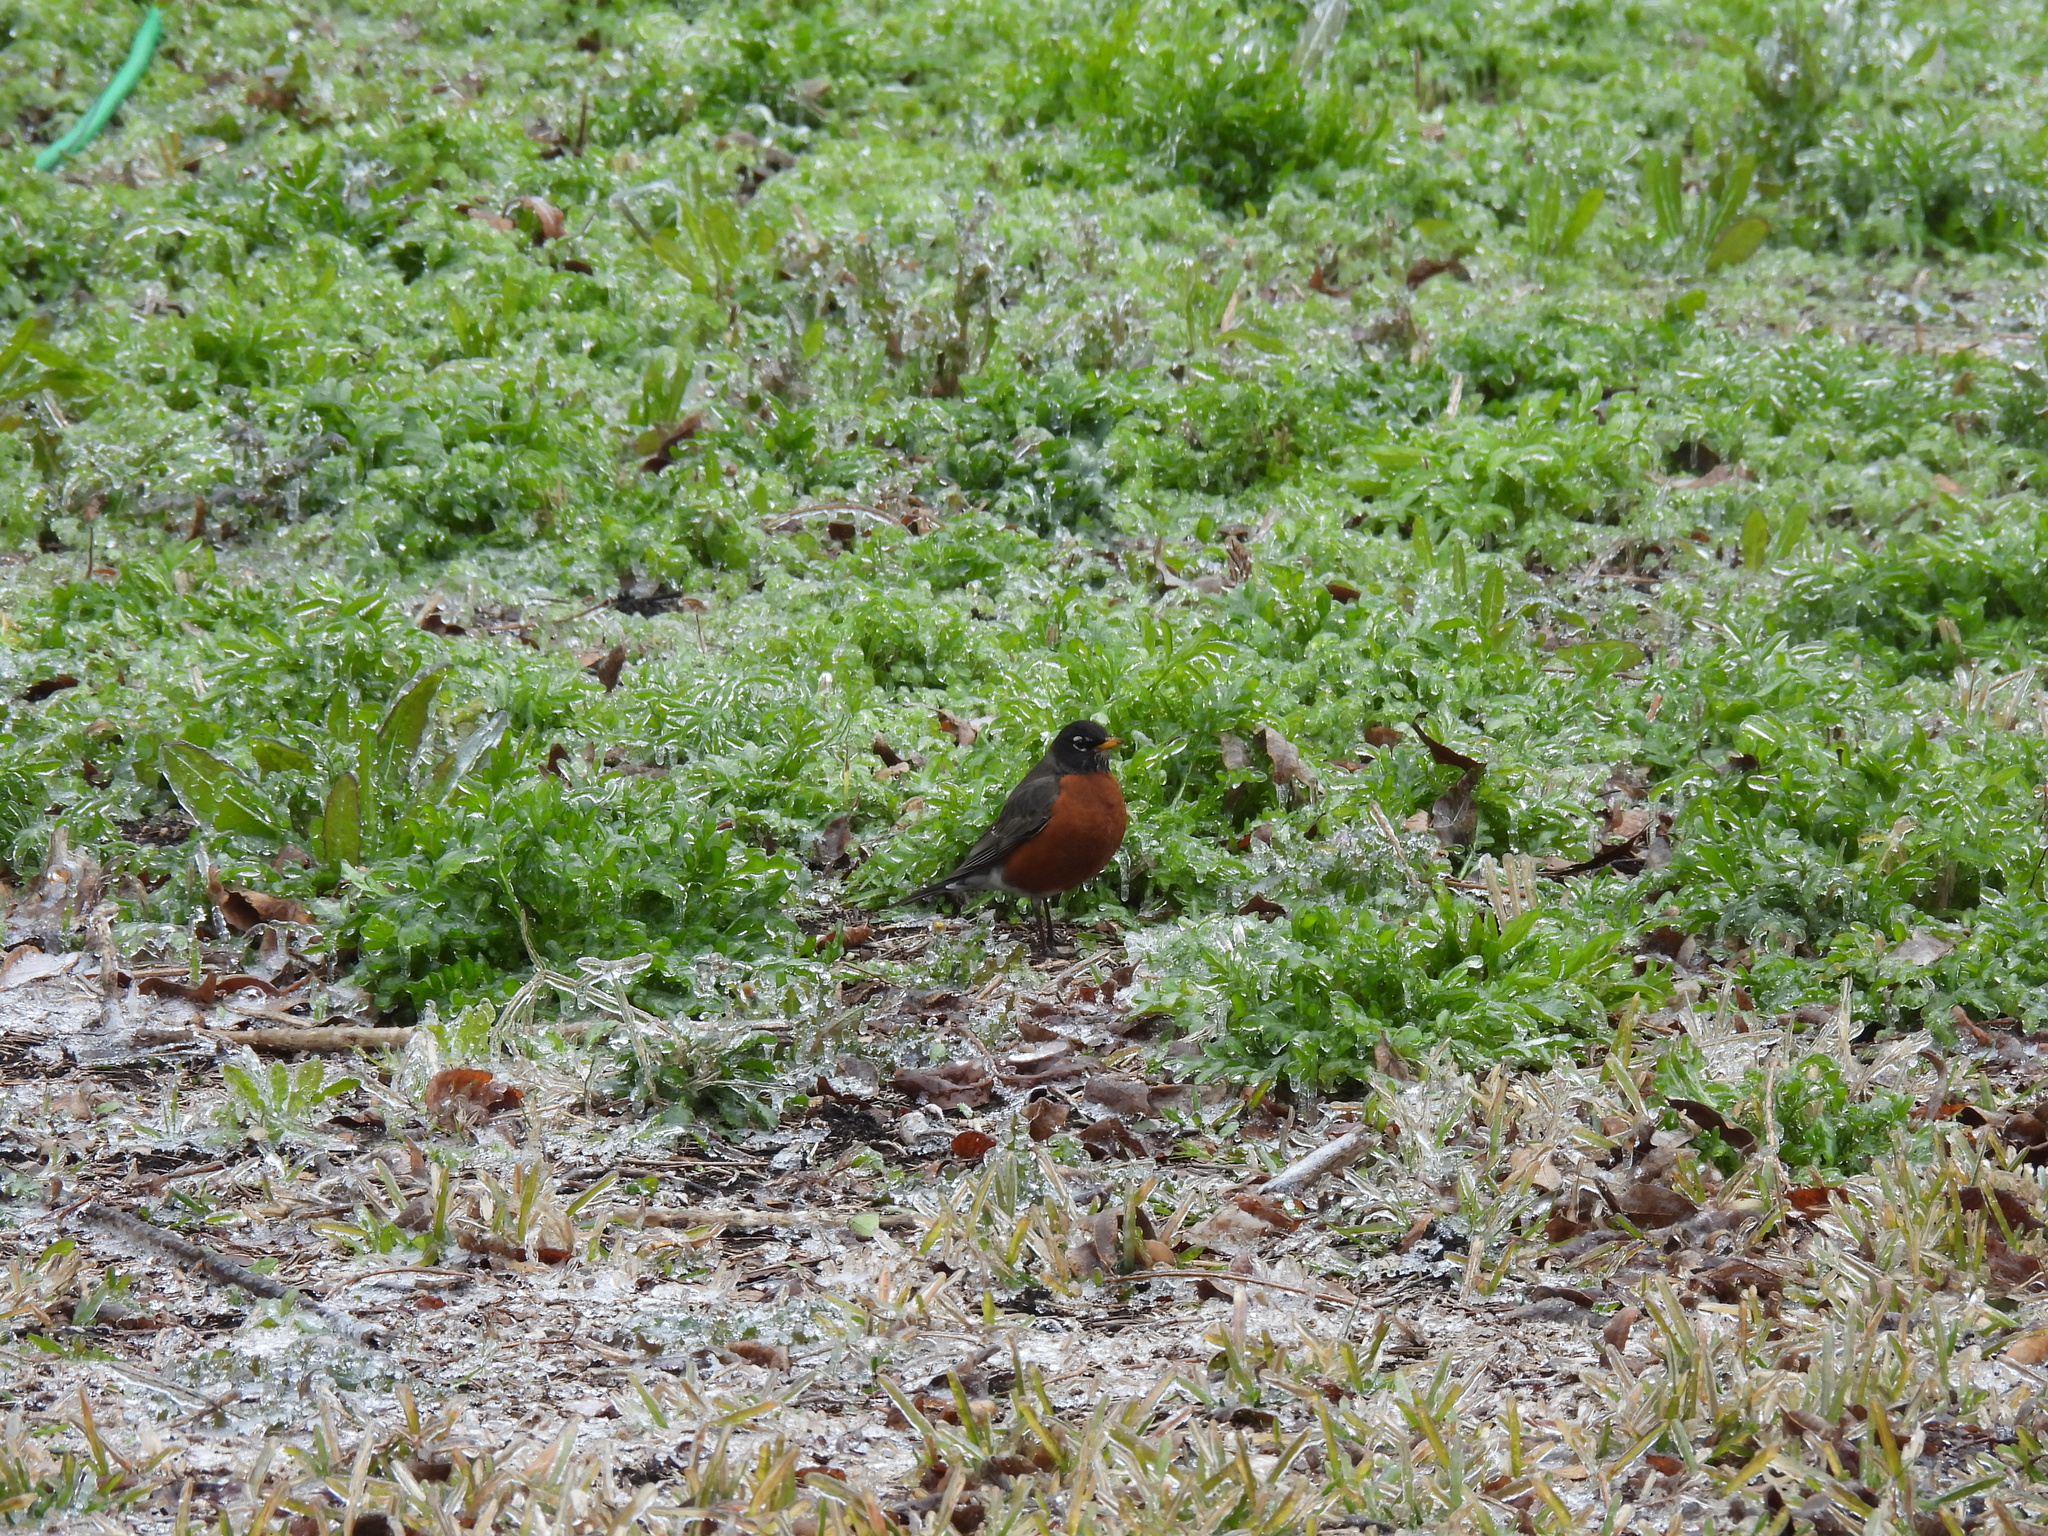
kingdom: Animalia
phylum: Chordata
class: Aves
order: Passeriformes
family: Turdidae
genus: Turdus
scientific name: Turdus migratorius
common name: American robin
